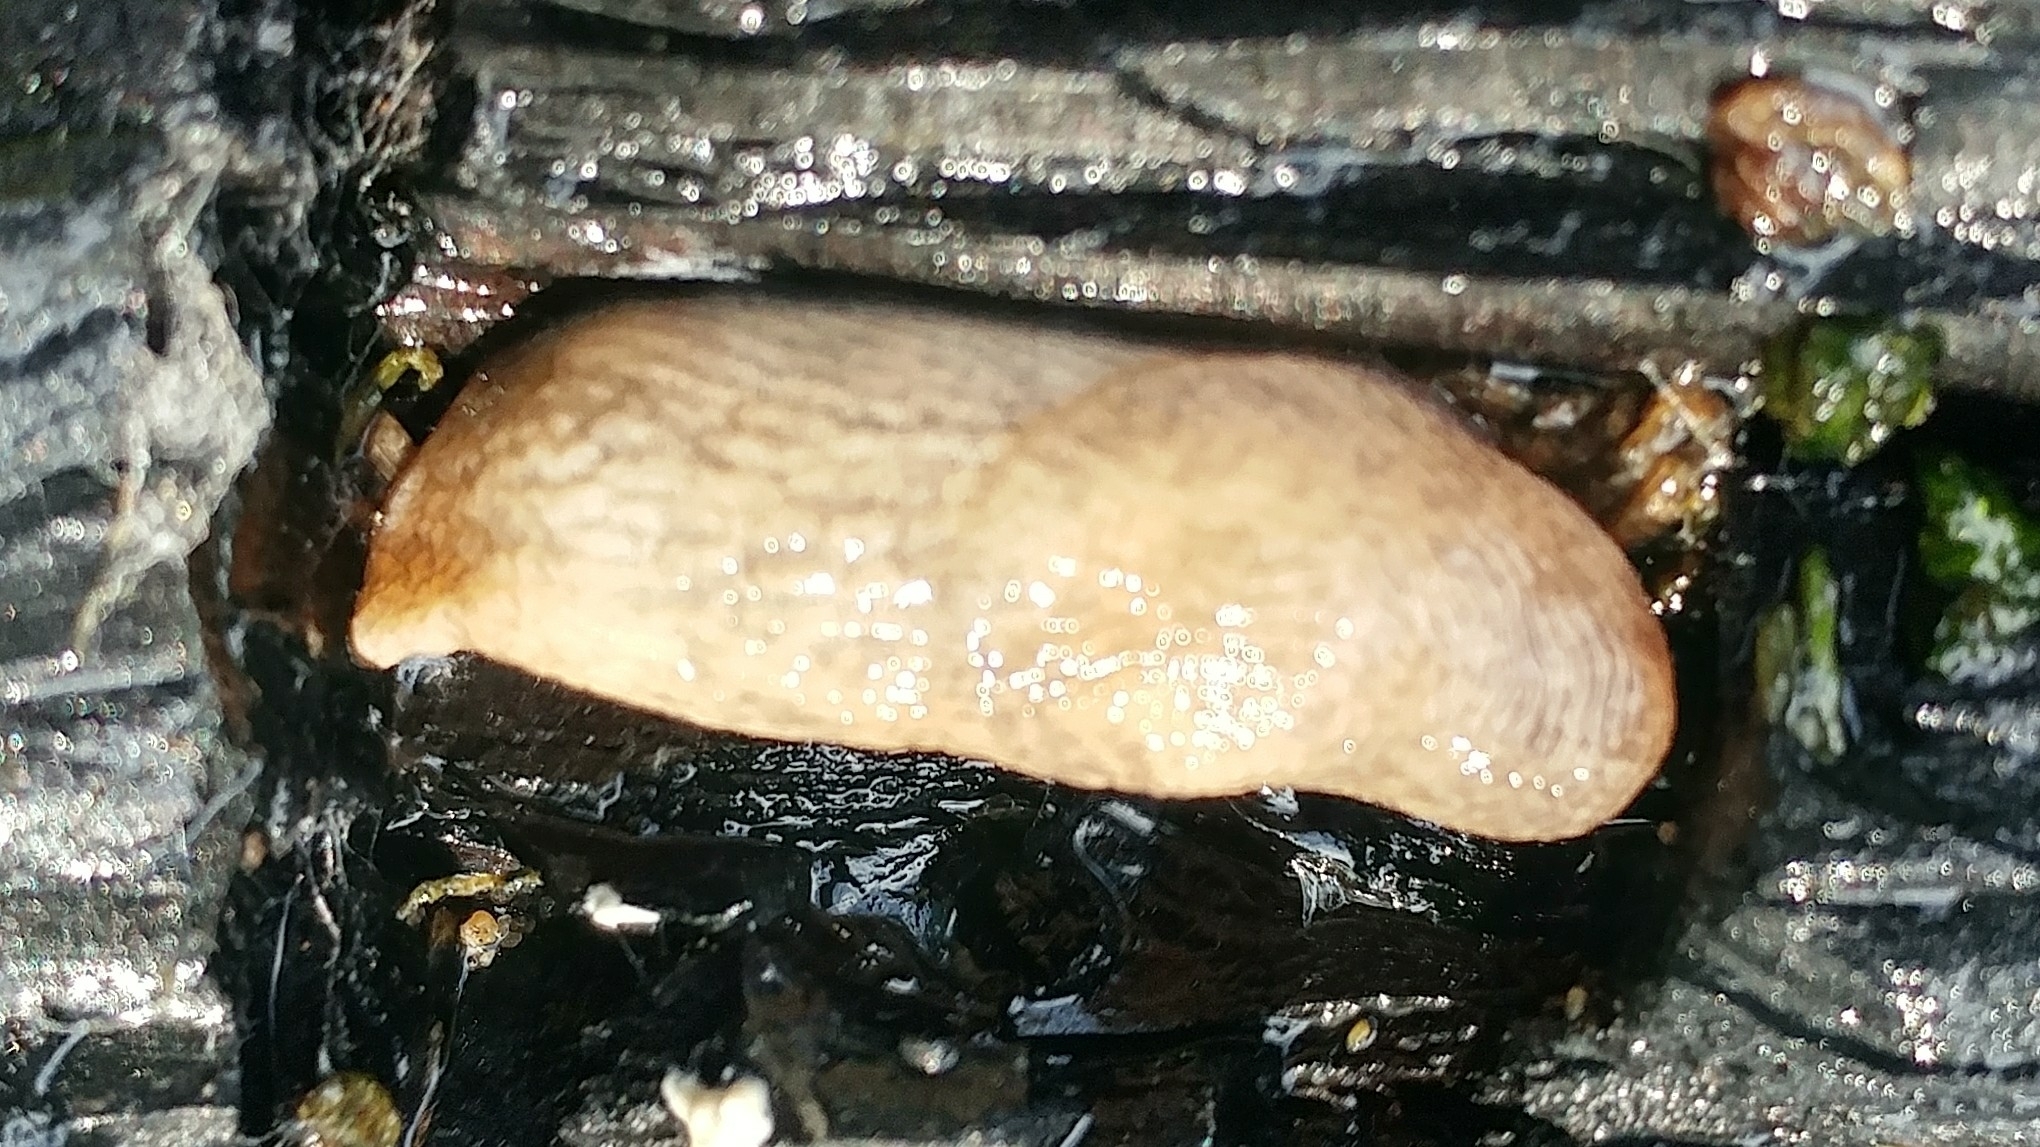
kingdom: Animalia
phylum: Mollusca
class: Gastropoda
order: Stylommatophora
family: Agriolimacidae
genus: Deroceras
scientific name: Deroceras reticulatum
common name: Gray field slug
